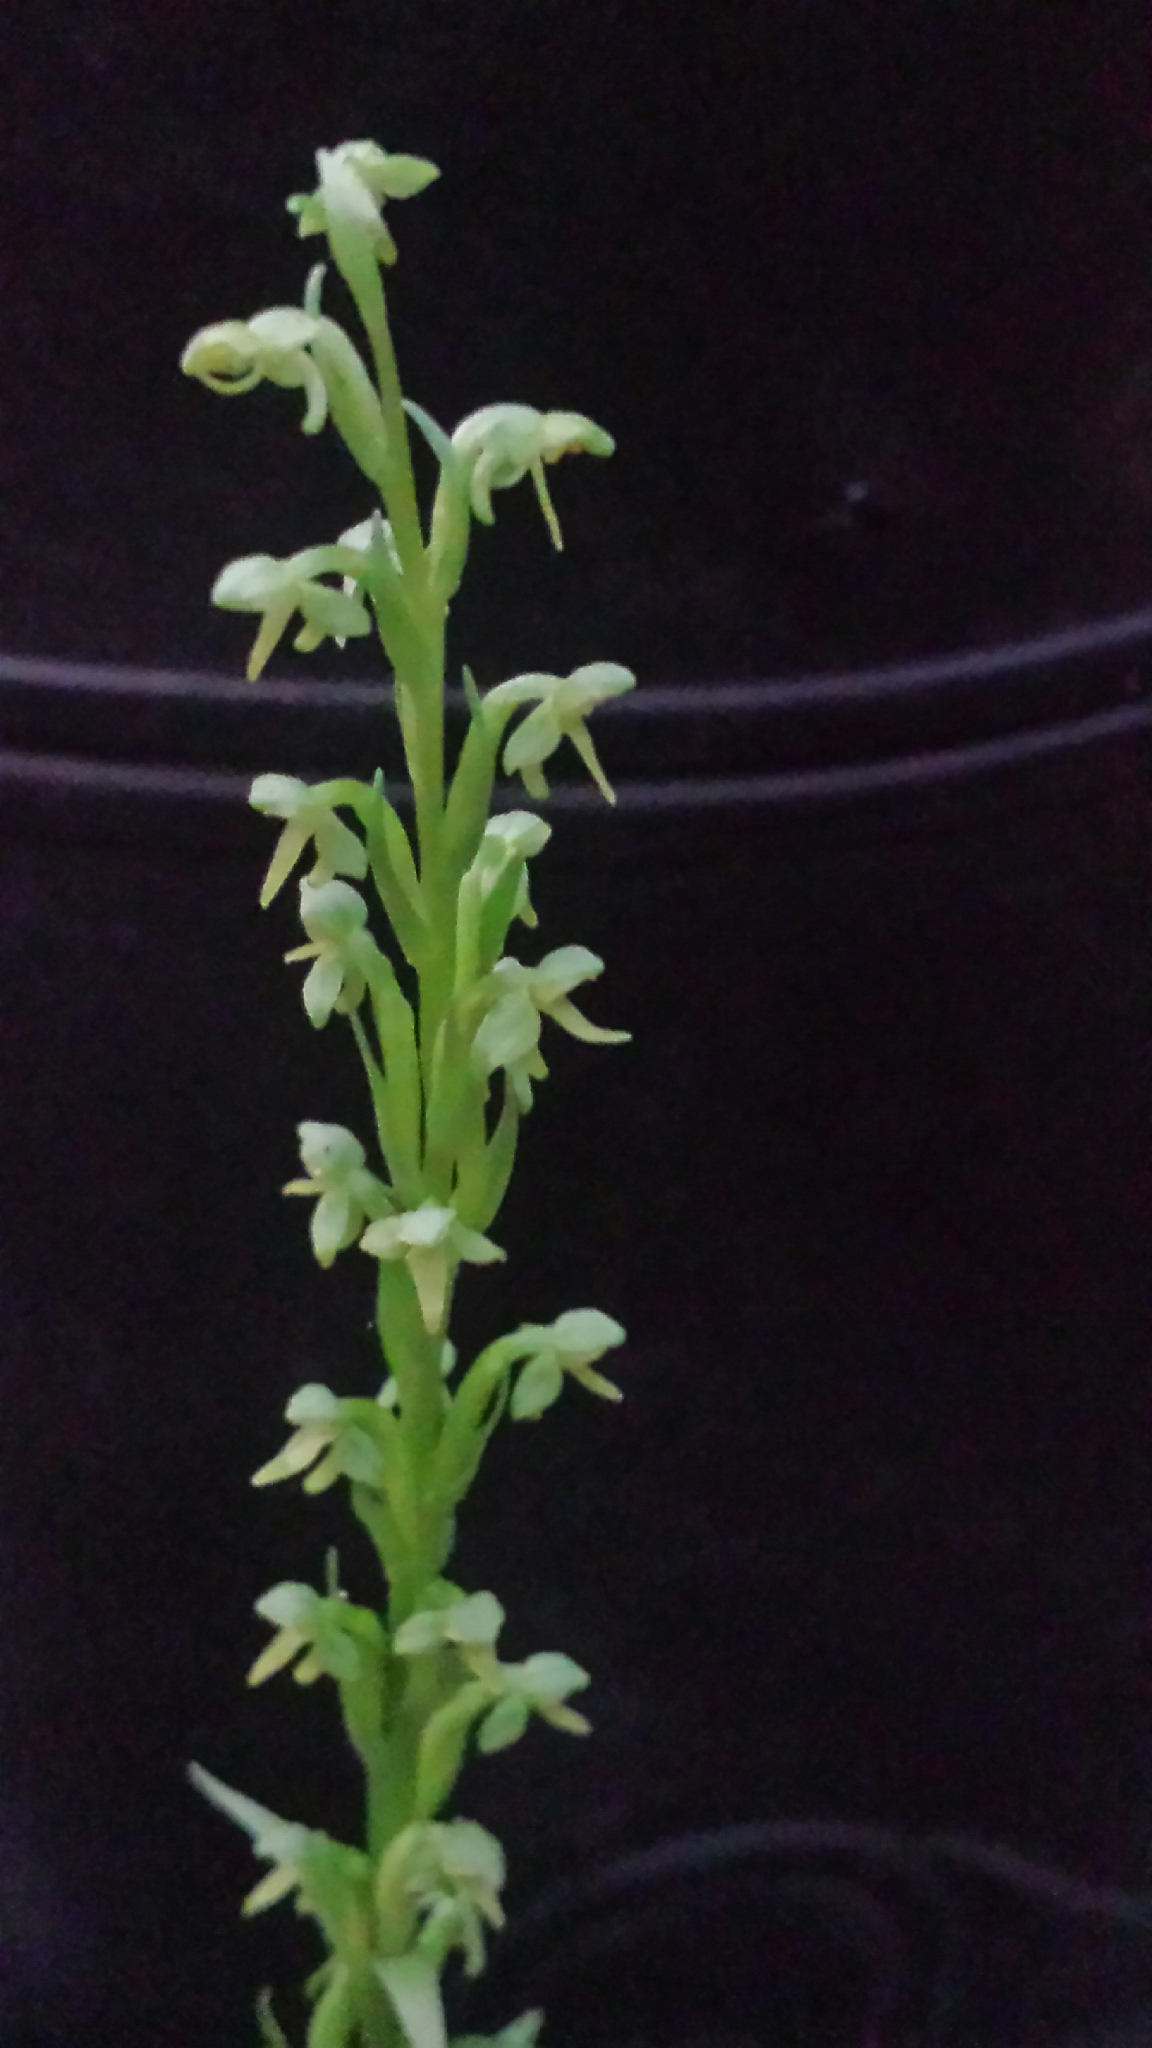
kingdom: Plantae
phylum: Tracheophyta
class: Liliopsida
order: Asparagales
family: Orchidaceae
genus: Platanthera
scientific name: Platanthera aquilonis
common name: Northern green orchid
